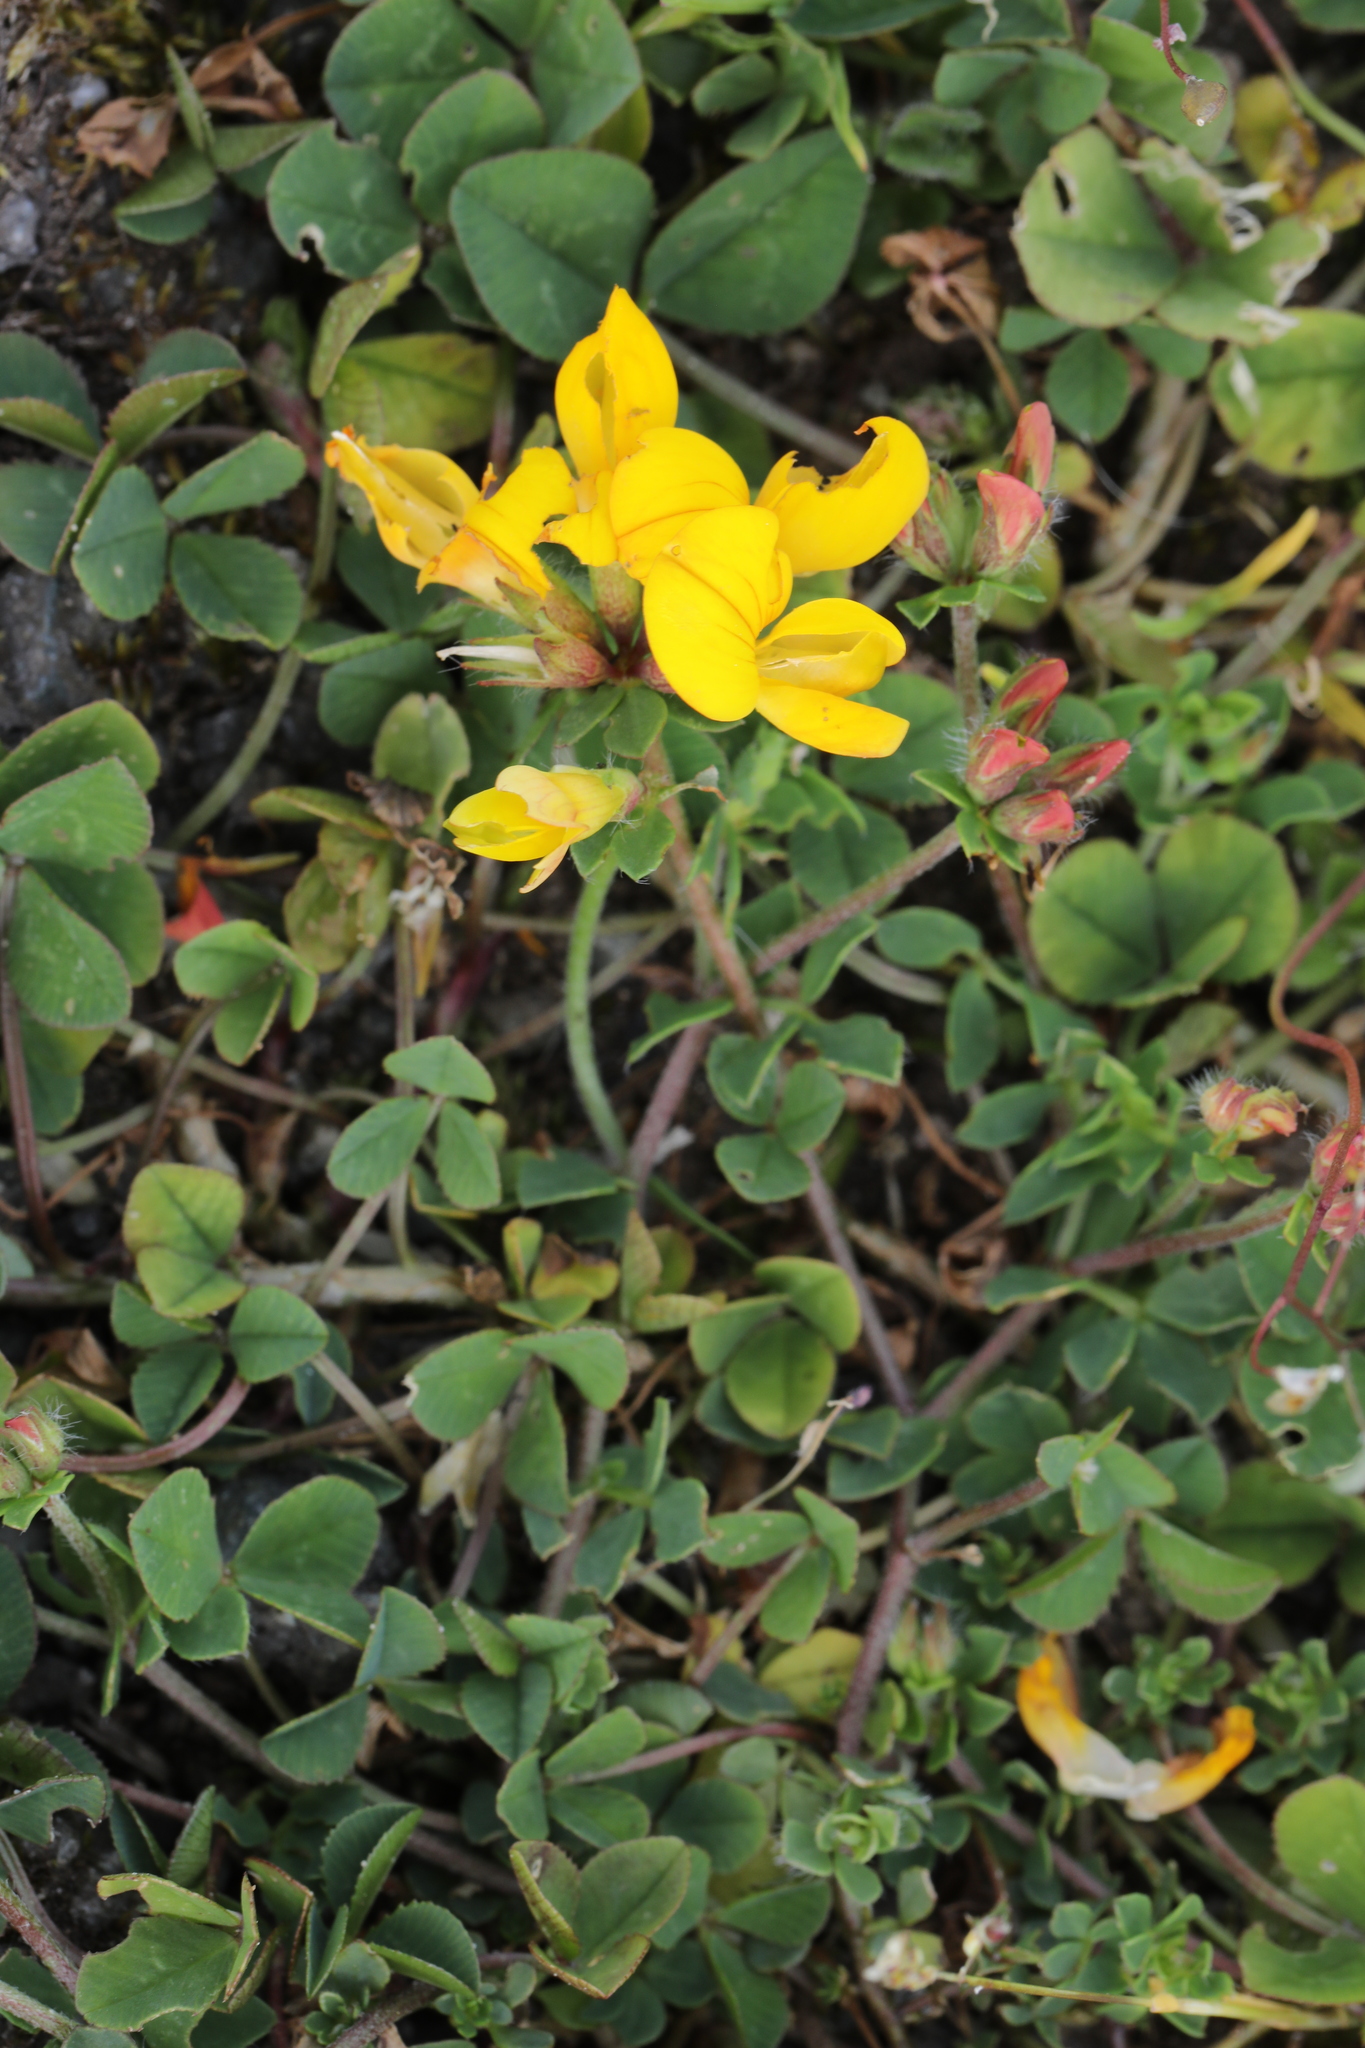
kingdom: Plantae
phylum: Tracheophyta
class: Magnoliopsida
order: Fabales
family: Fabaceae
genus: Lotus
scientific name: Lotus corniculatus
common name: Common bird's-foot-trefoil
